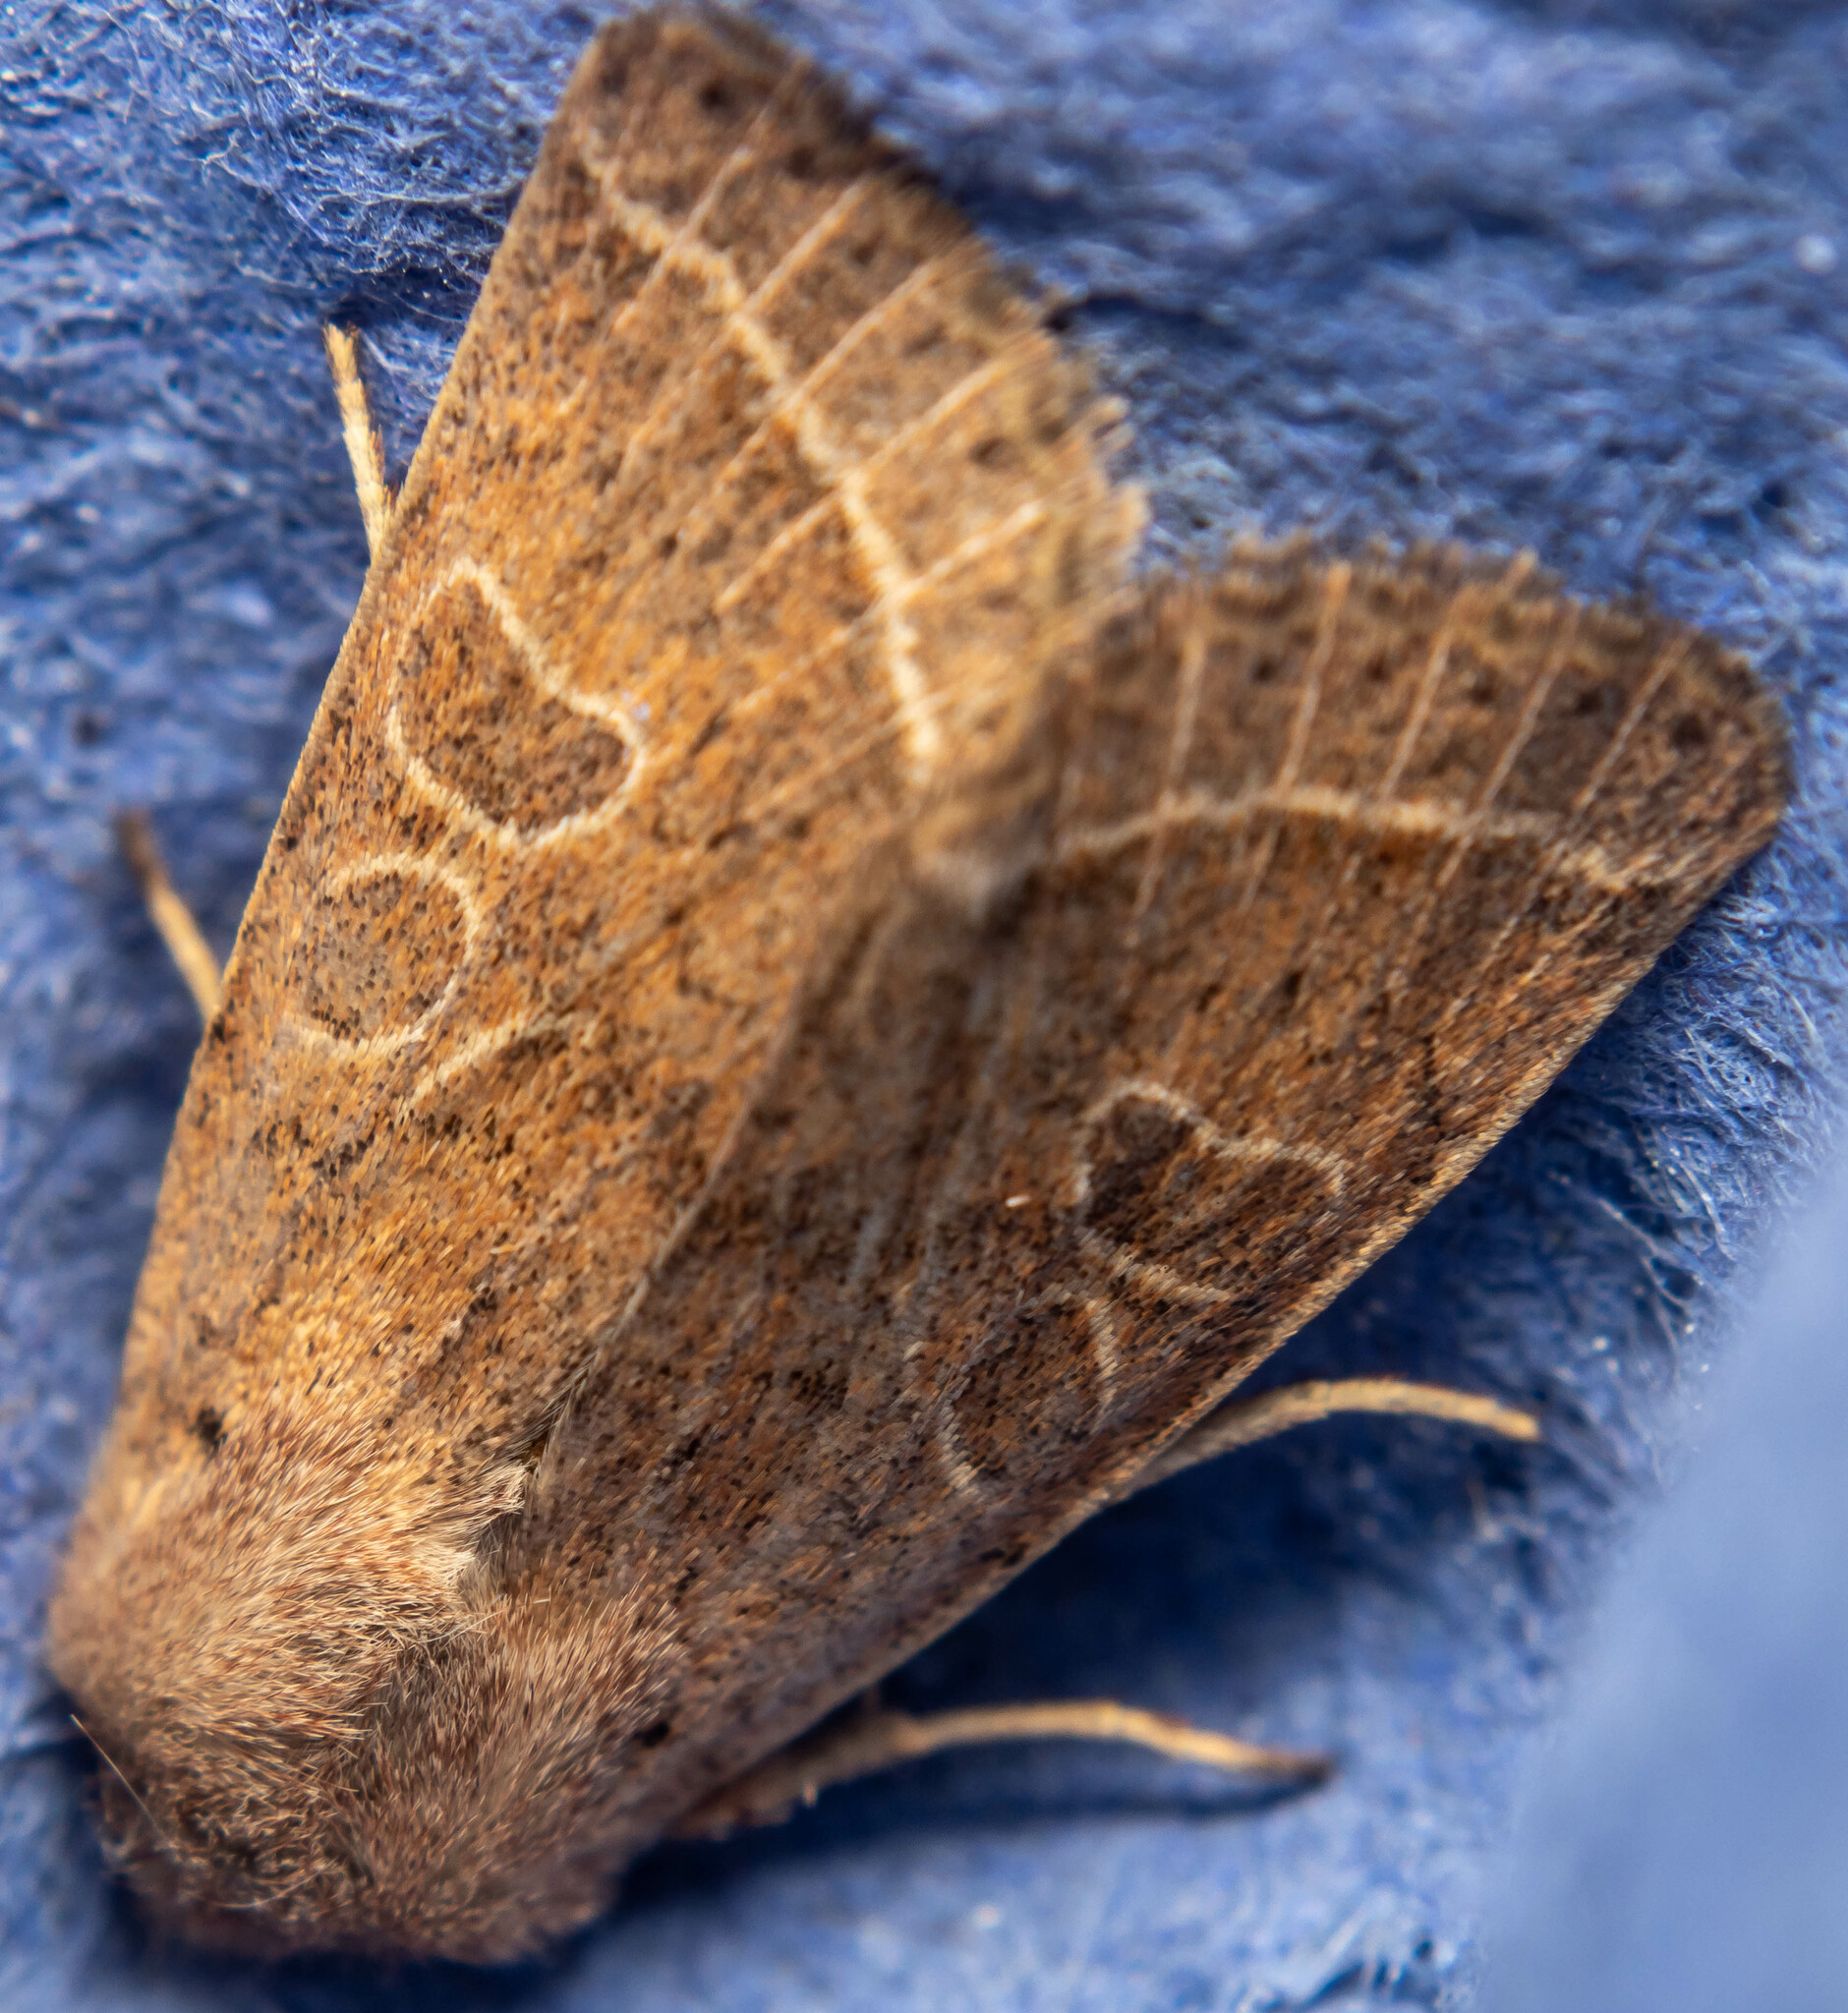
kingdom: Animalia
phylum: Arthropoda
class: Insecta
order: Lepidoptera
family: Noctuidae
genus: Orthosia
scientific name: Orthosia cerasi
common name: Common quaker
